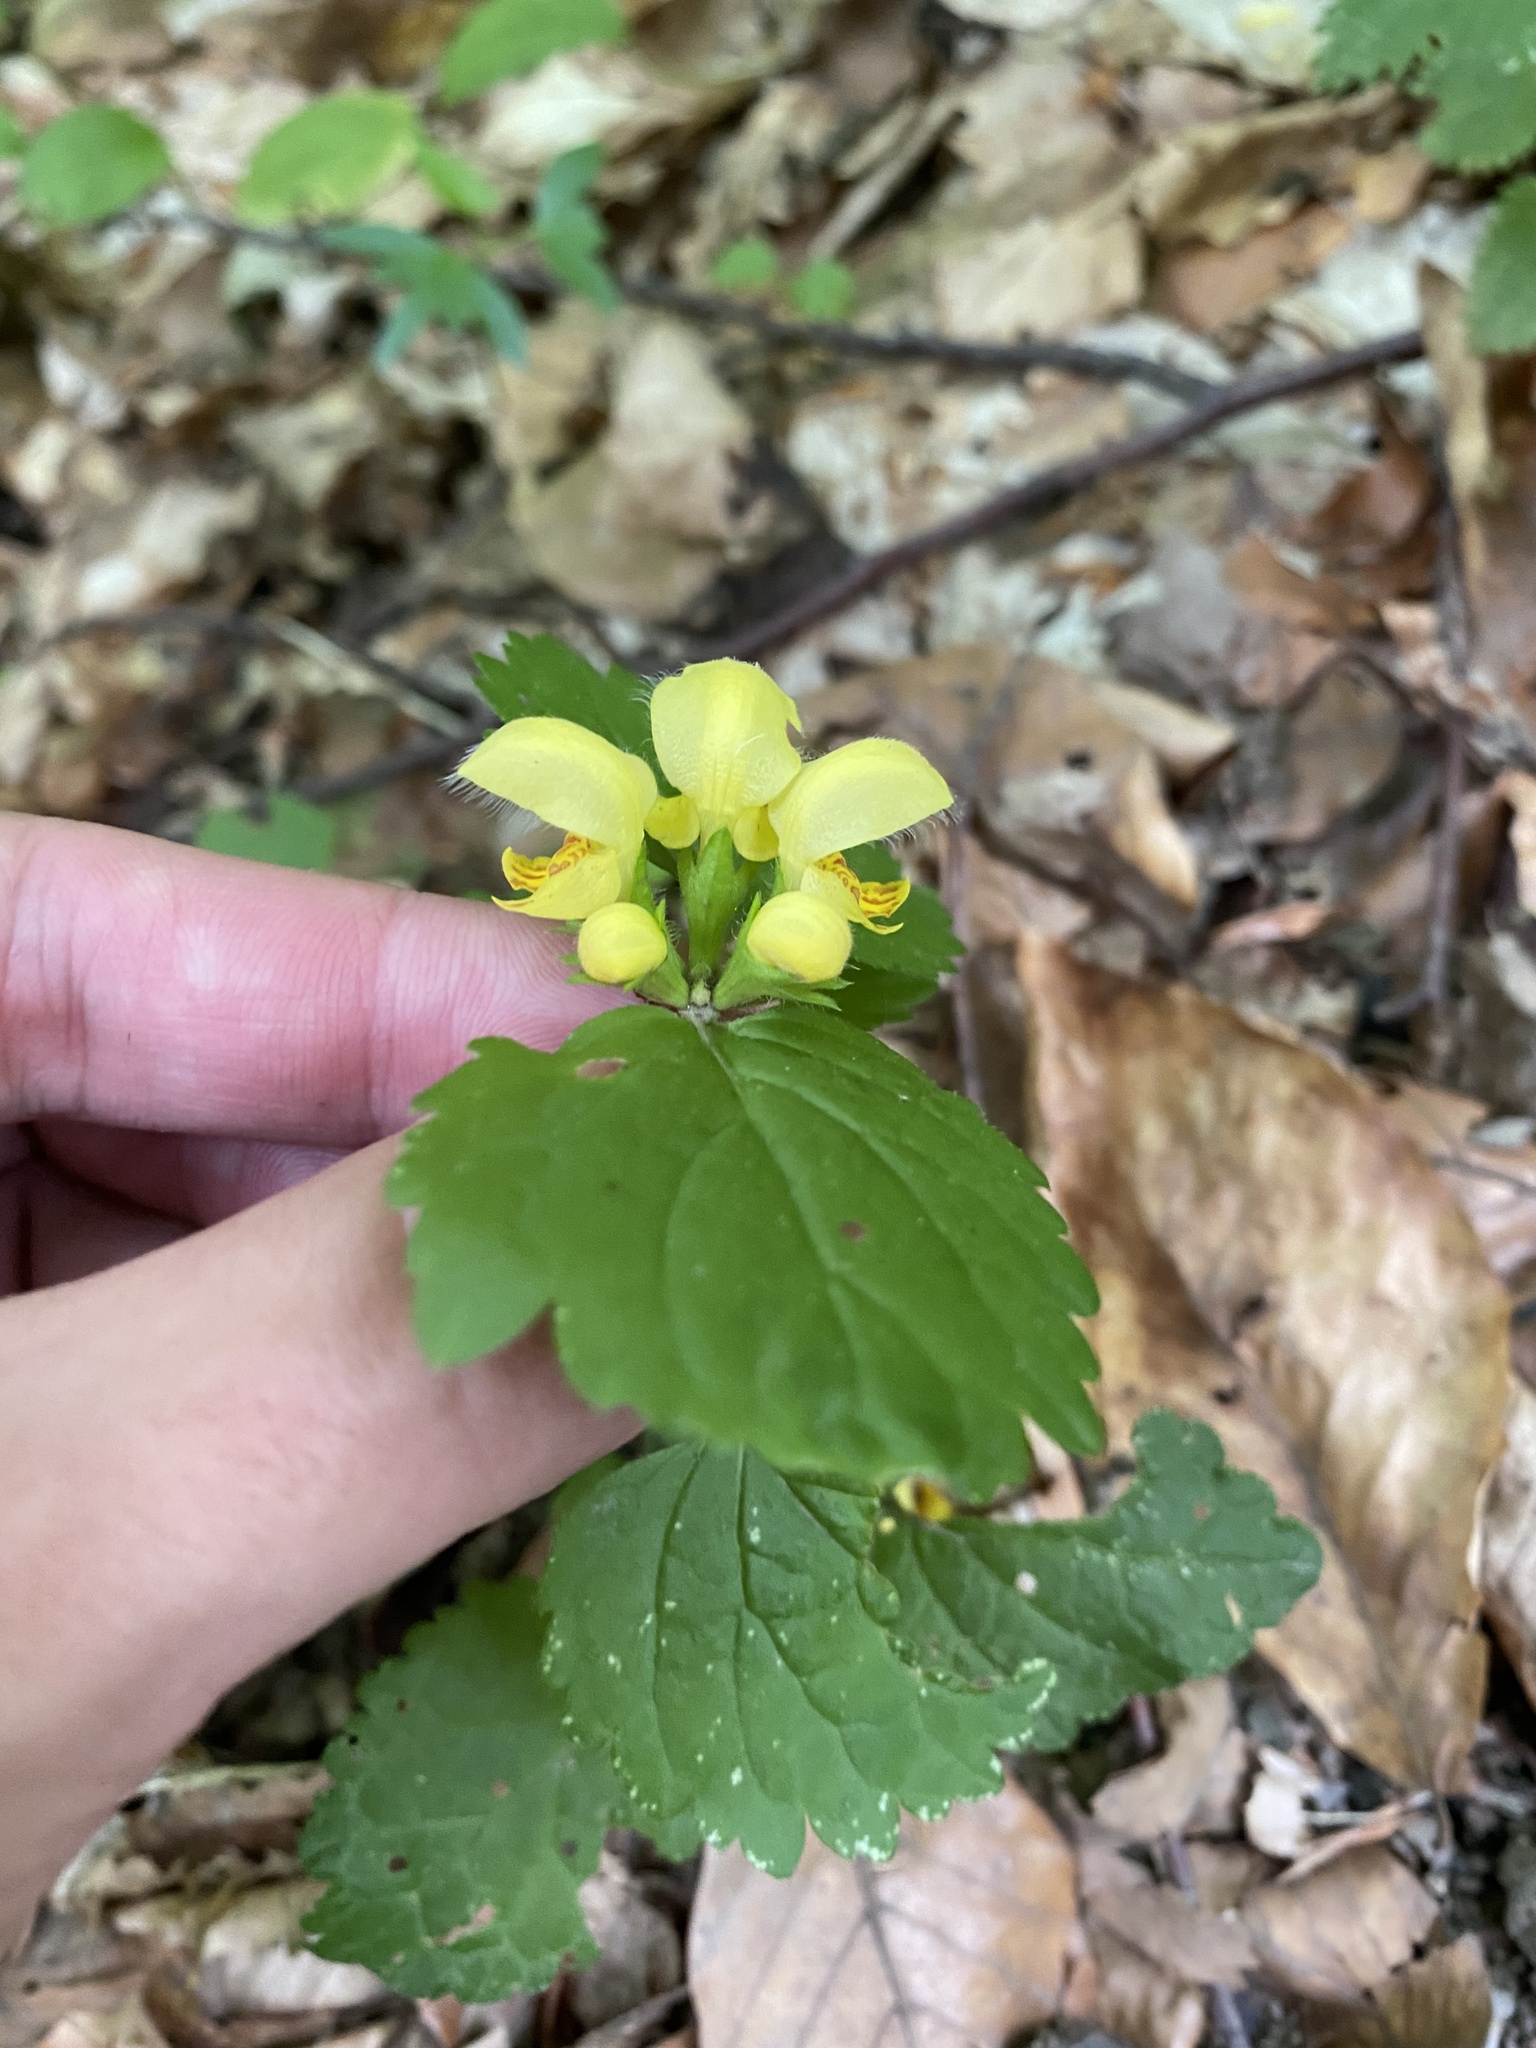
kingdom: Plantae
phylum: Tracheophyta
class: Magnoliopsida
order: Lamiales
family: Lamiaceae
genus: Lamium
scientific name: Lamium galeobdolon
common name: Yellow archangel
